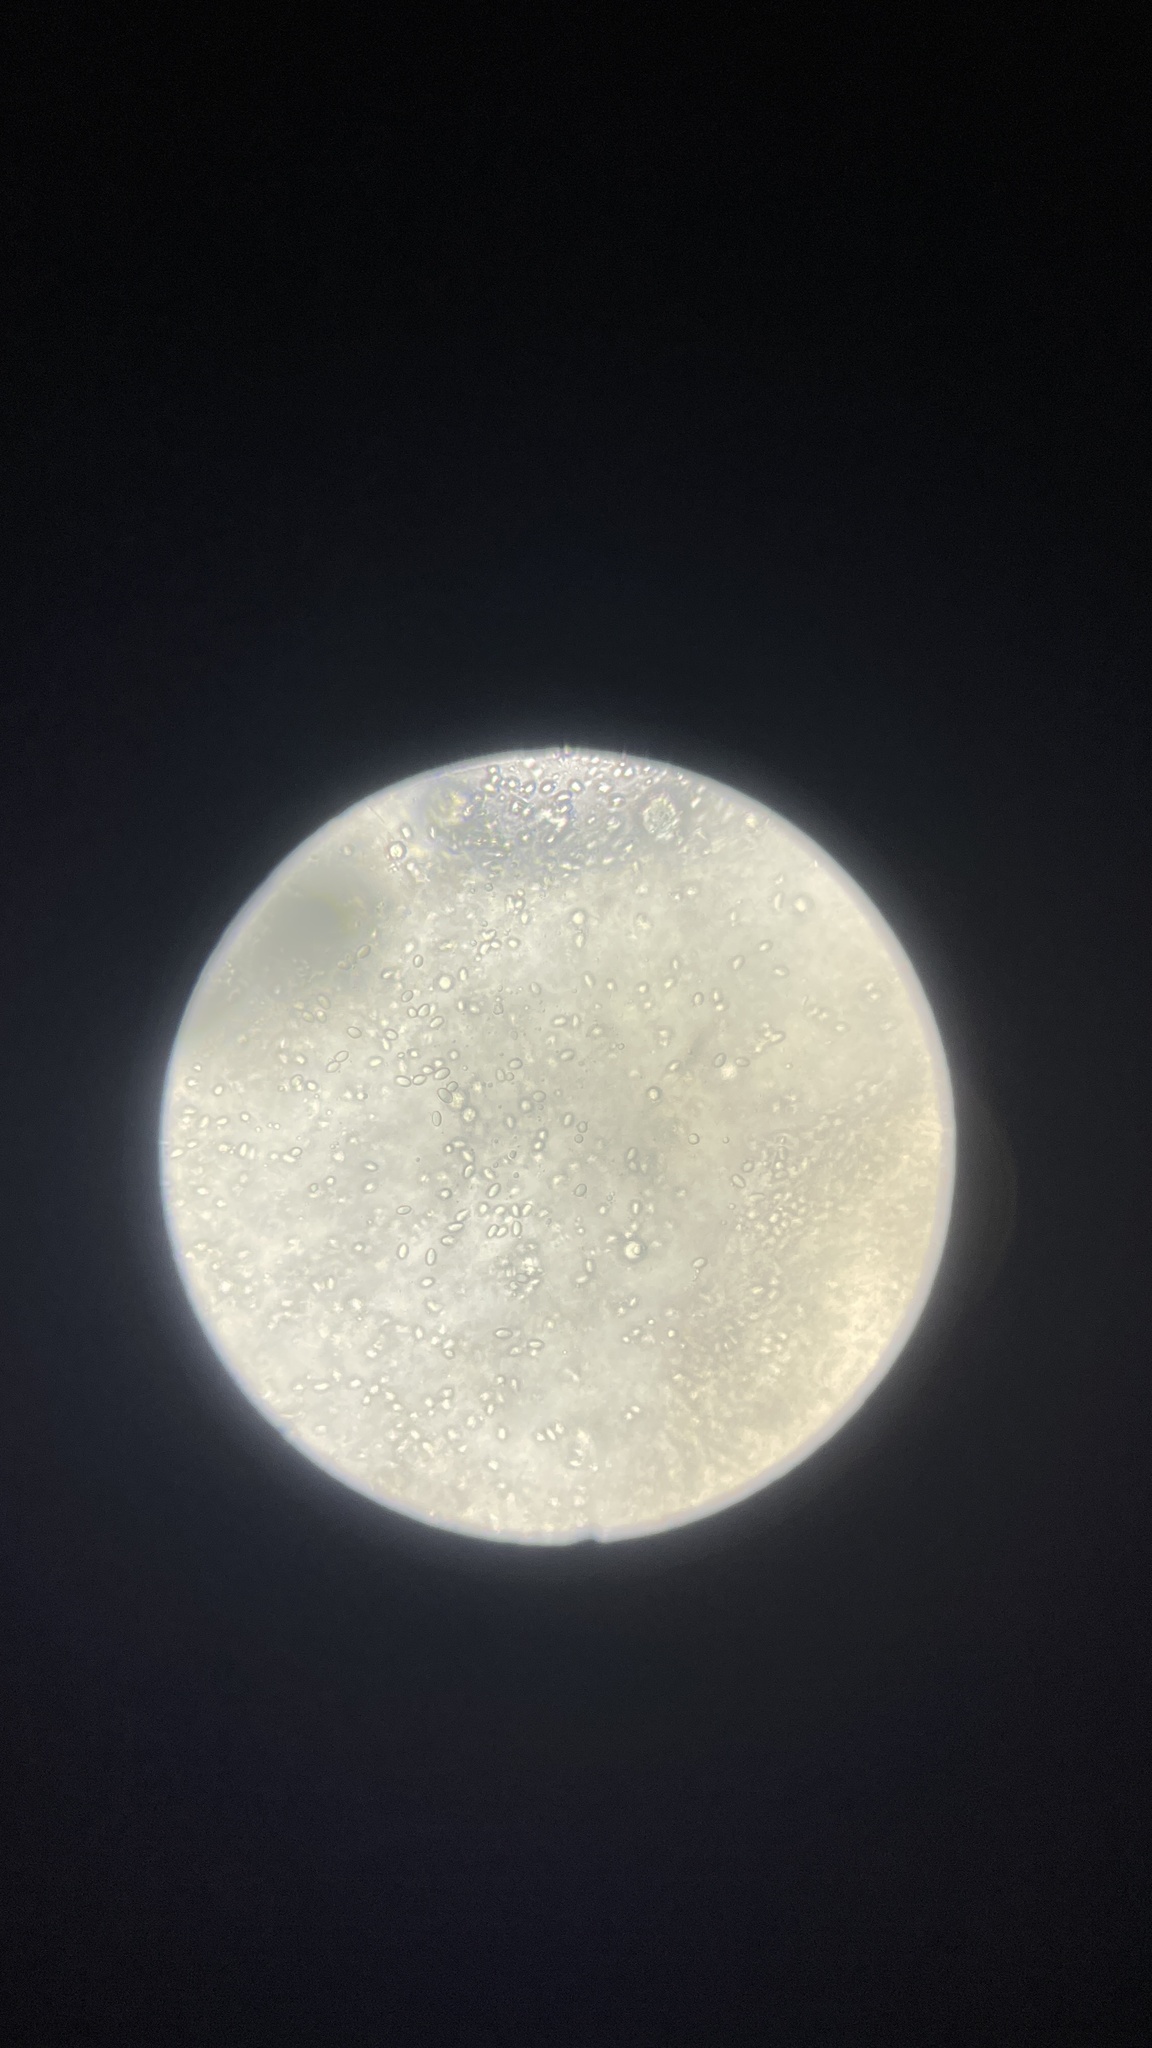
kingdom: Fungi
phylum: Basidiomycota
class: Agaricomycetes
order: Boletales
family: Rhizopogonaceae
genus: Rhizopogon
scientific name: Rhizopogon alexsmithii
